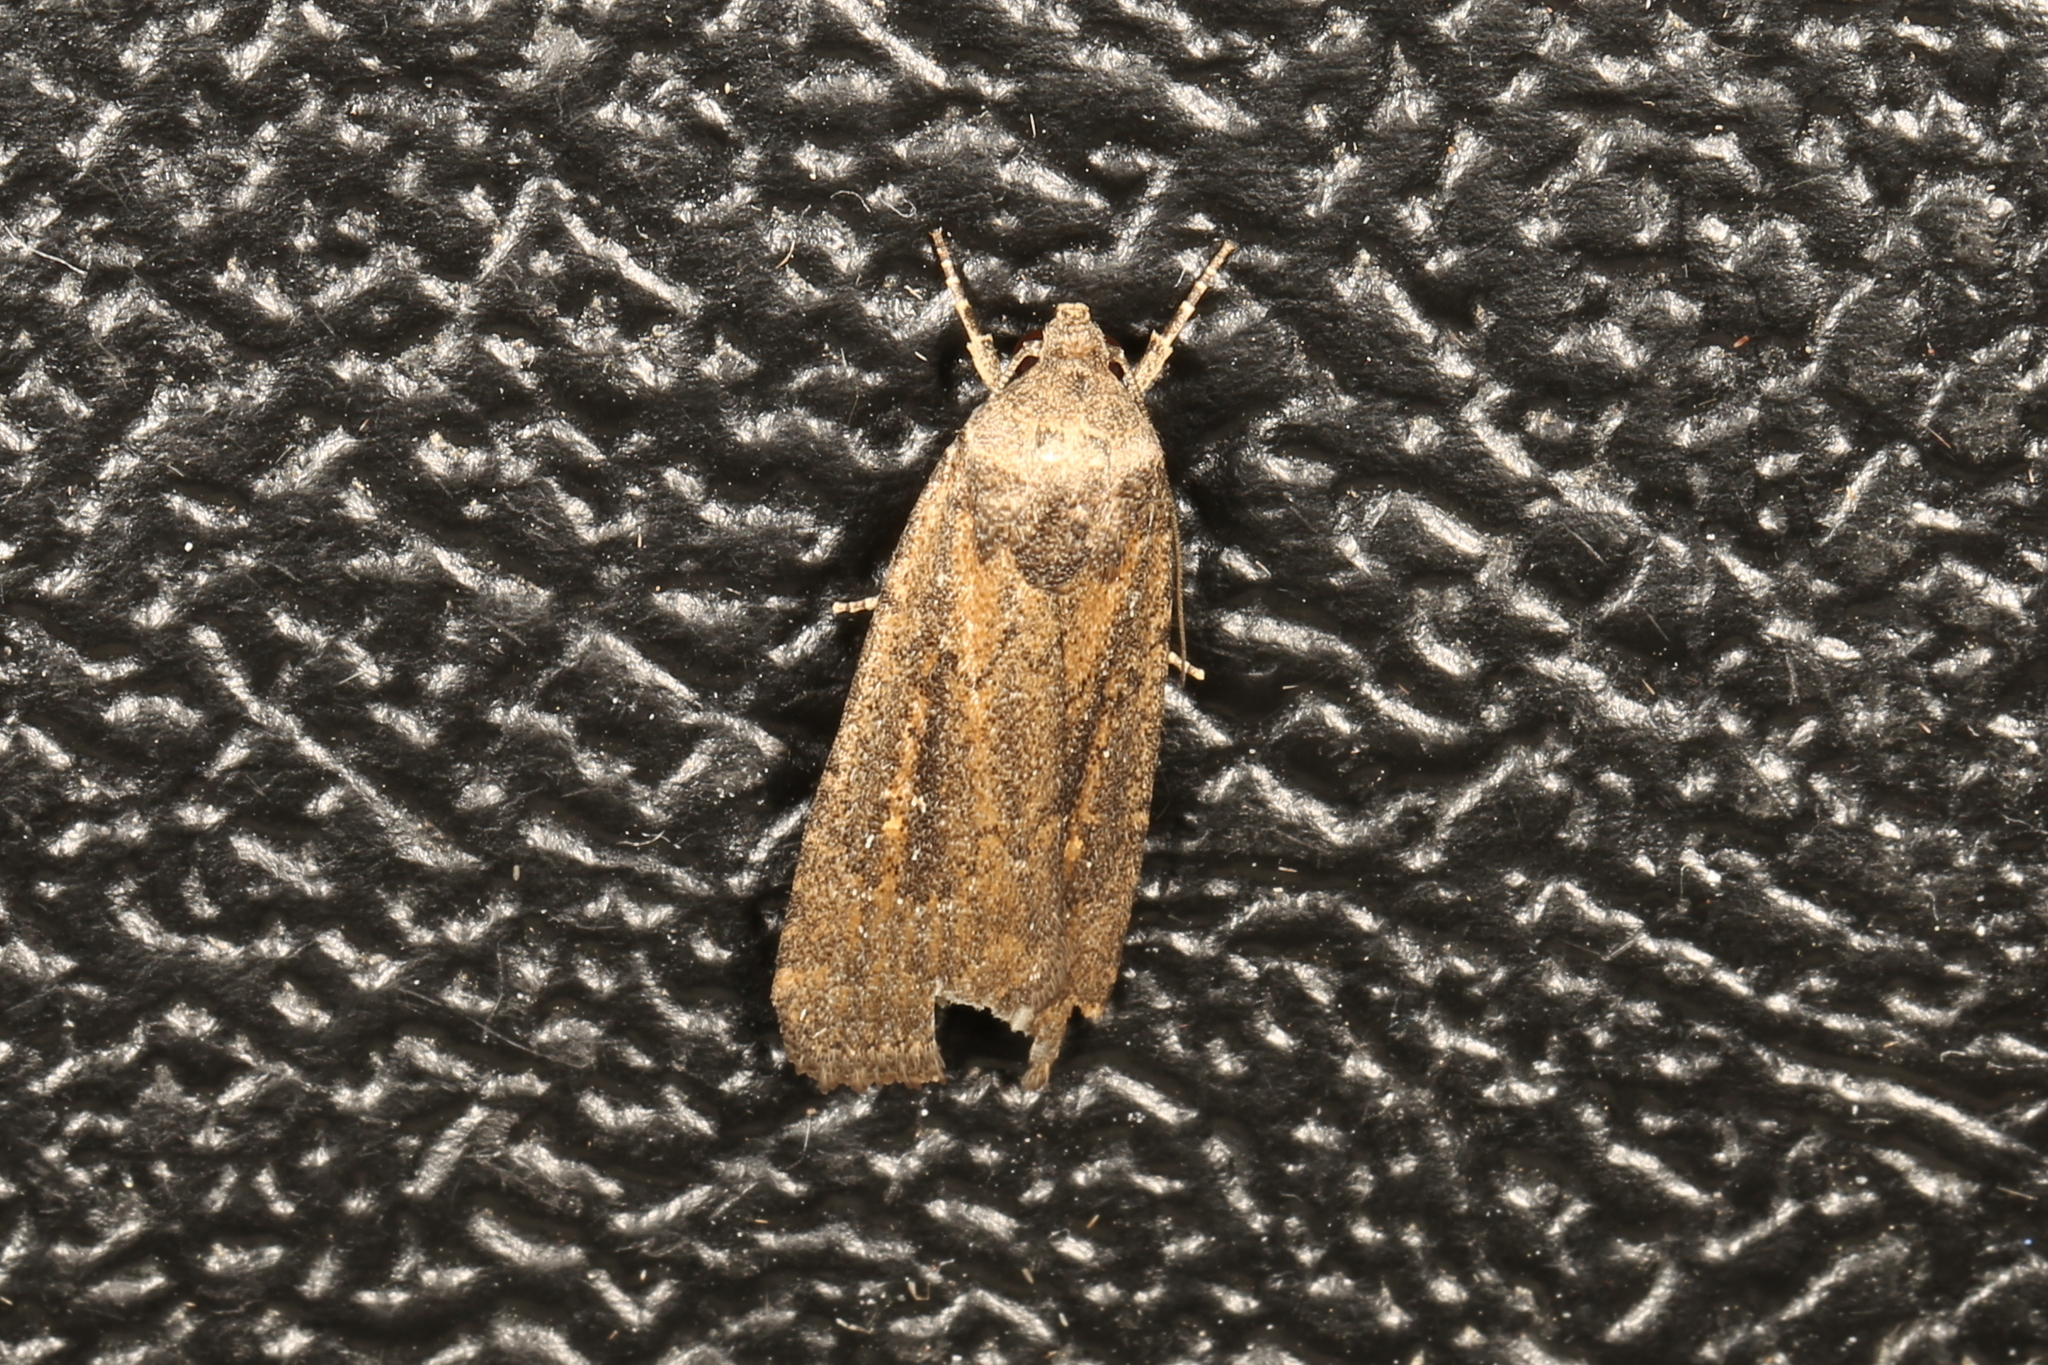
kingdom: Animalia
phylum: Arthropoda
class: Insecta
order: Lepidoptera
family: Noctuidae
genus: Athetis
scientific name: Athetis tenuis
